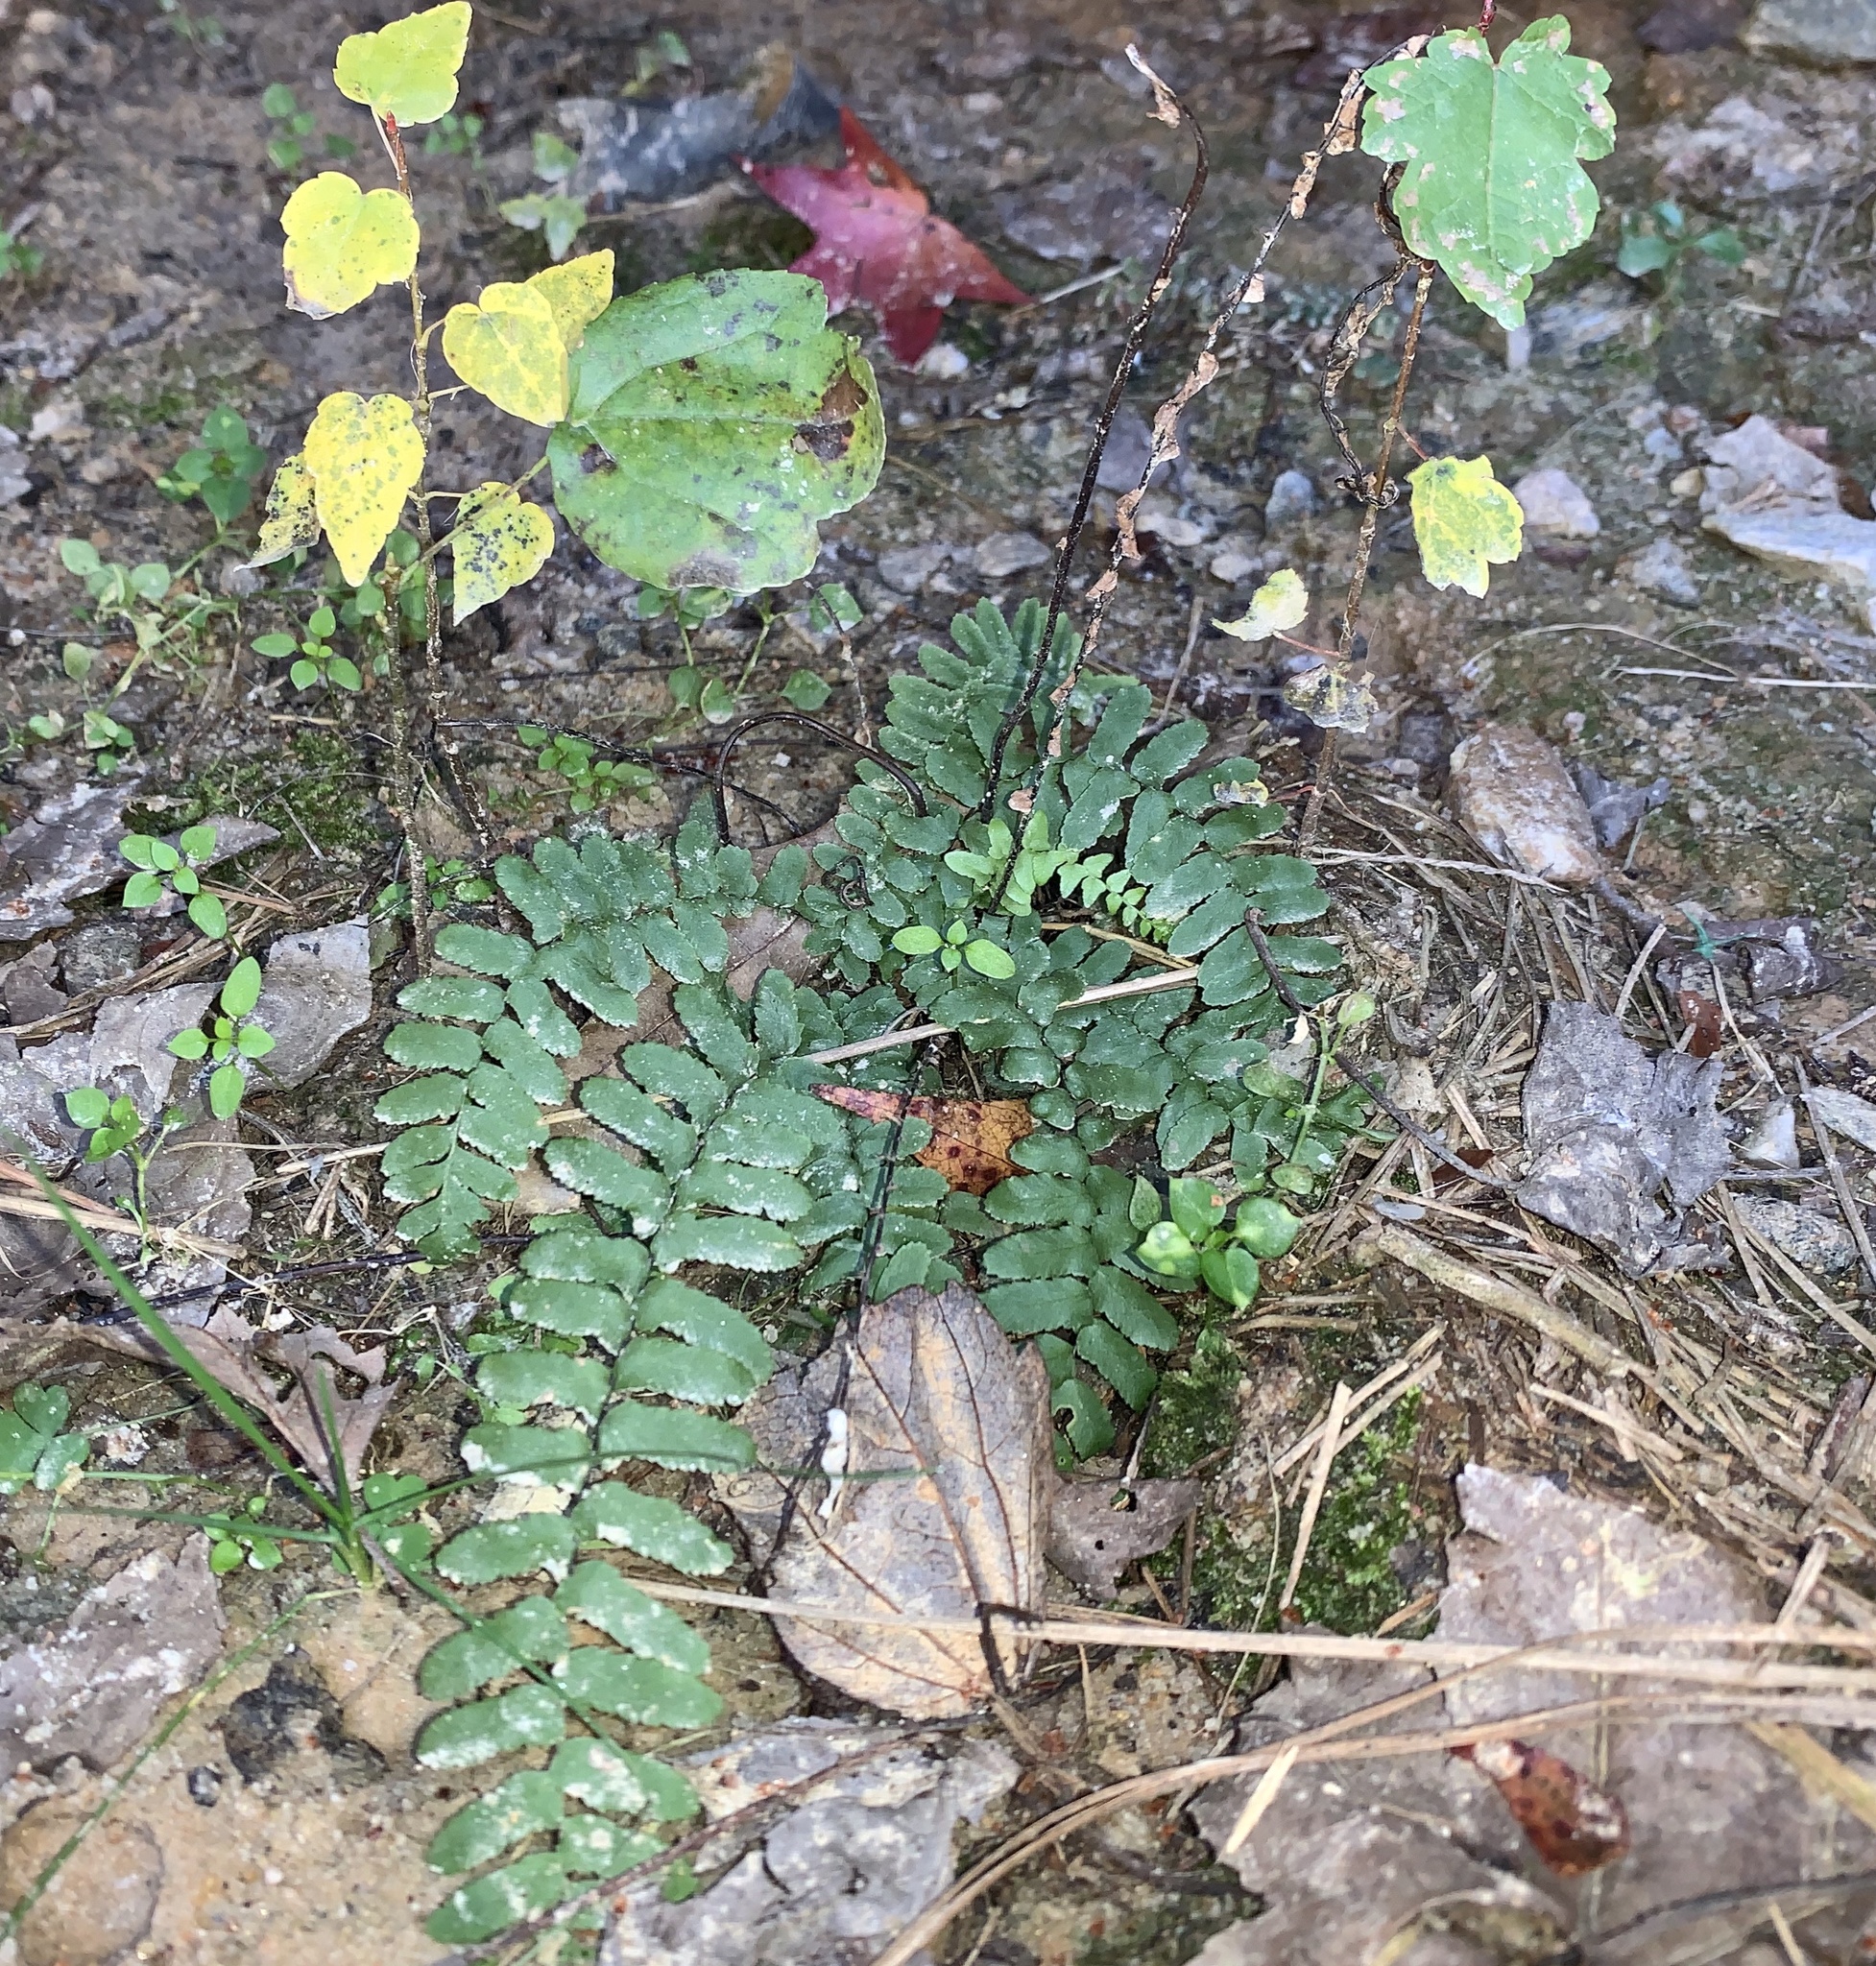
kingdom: Plantae
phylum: Tracheophyta
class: Polypodiopsida
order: Polypodiales
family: Aspleniaceae
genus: Asplenium
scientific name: Asplenium platyneuron
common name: Ebony spleenwort
